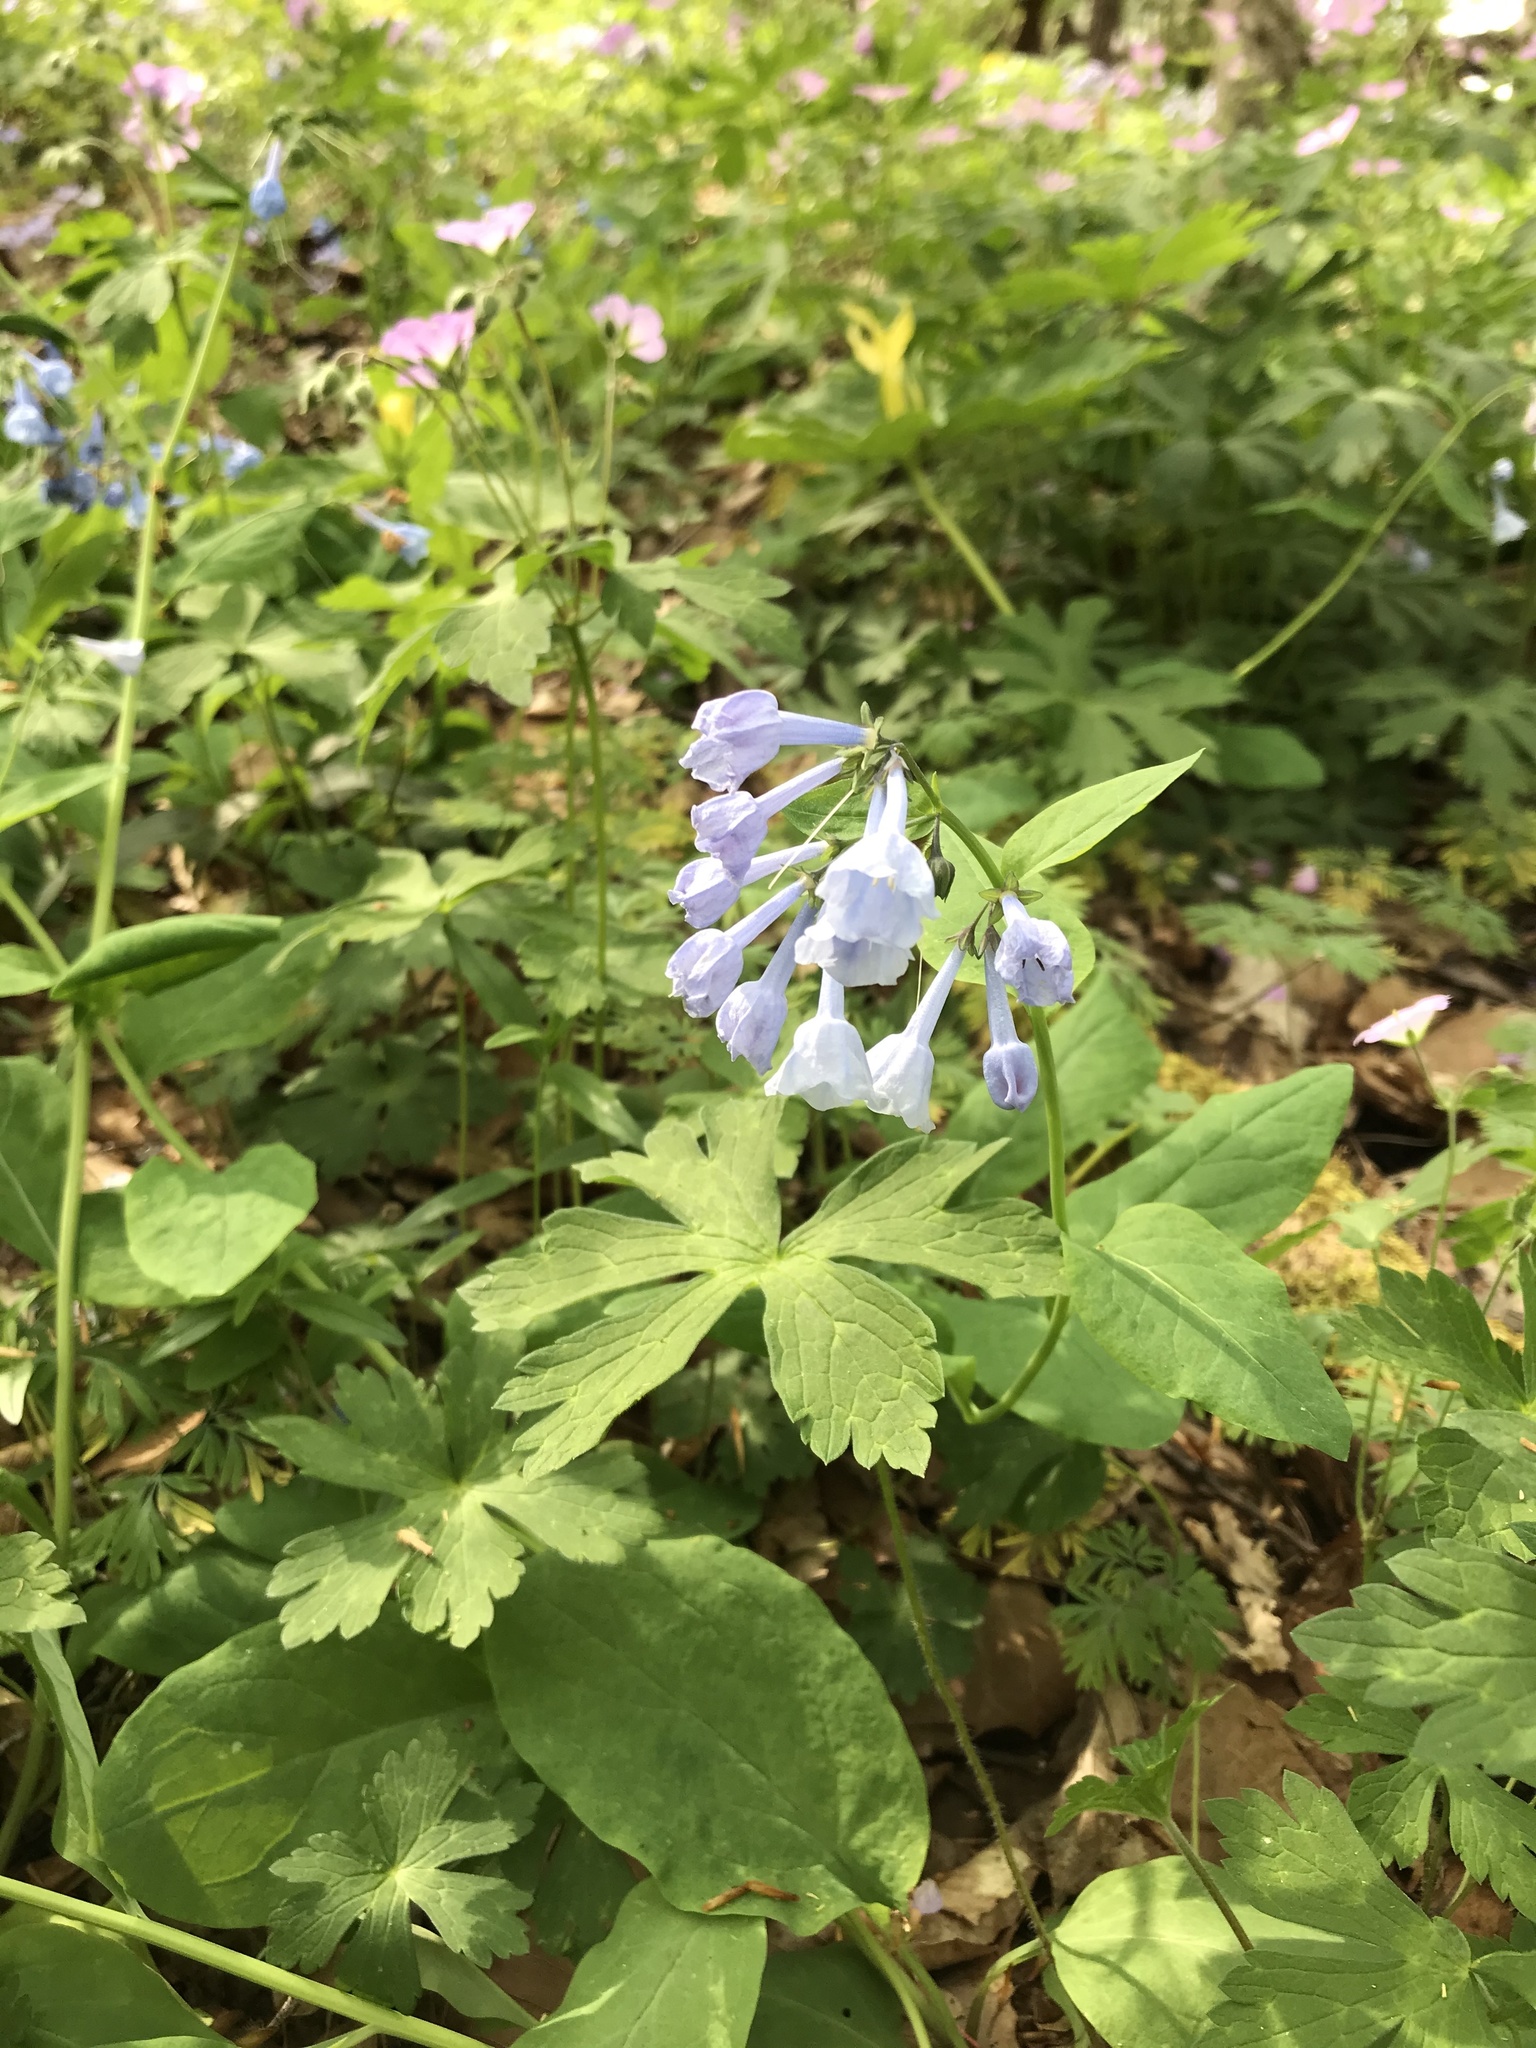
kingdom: Plantae
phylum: Tracheophyta
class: Magnoliopsida
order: Boraginales
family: Boraginaceae
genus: Mertensia
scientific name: Mertensia virginica
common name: Virginia bluebells
